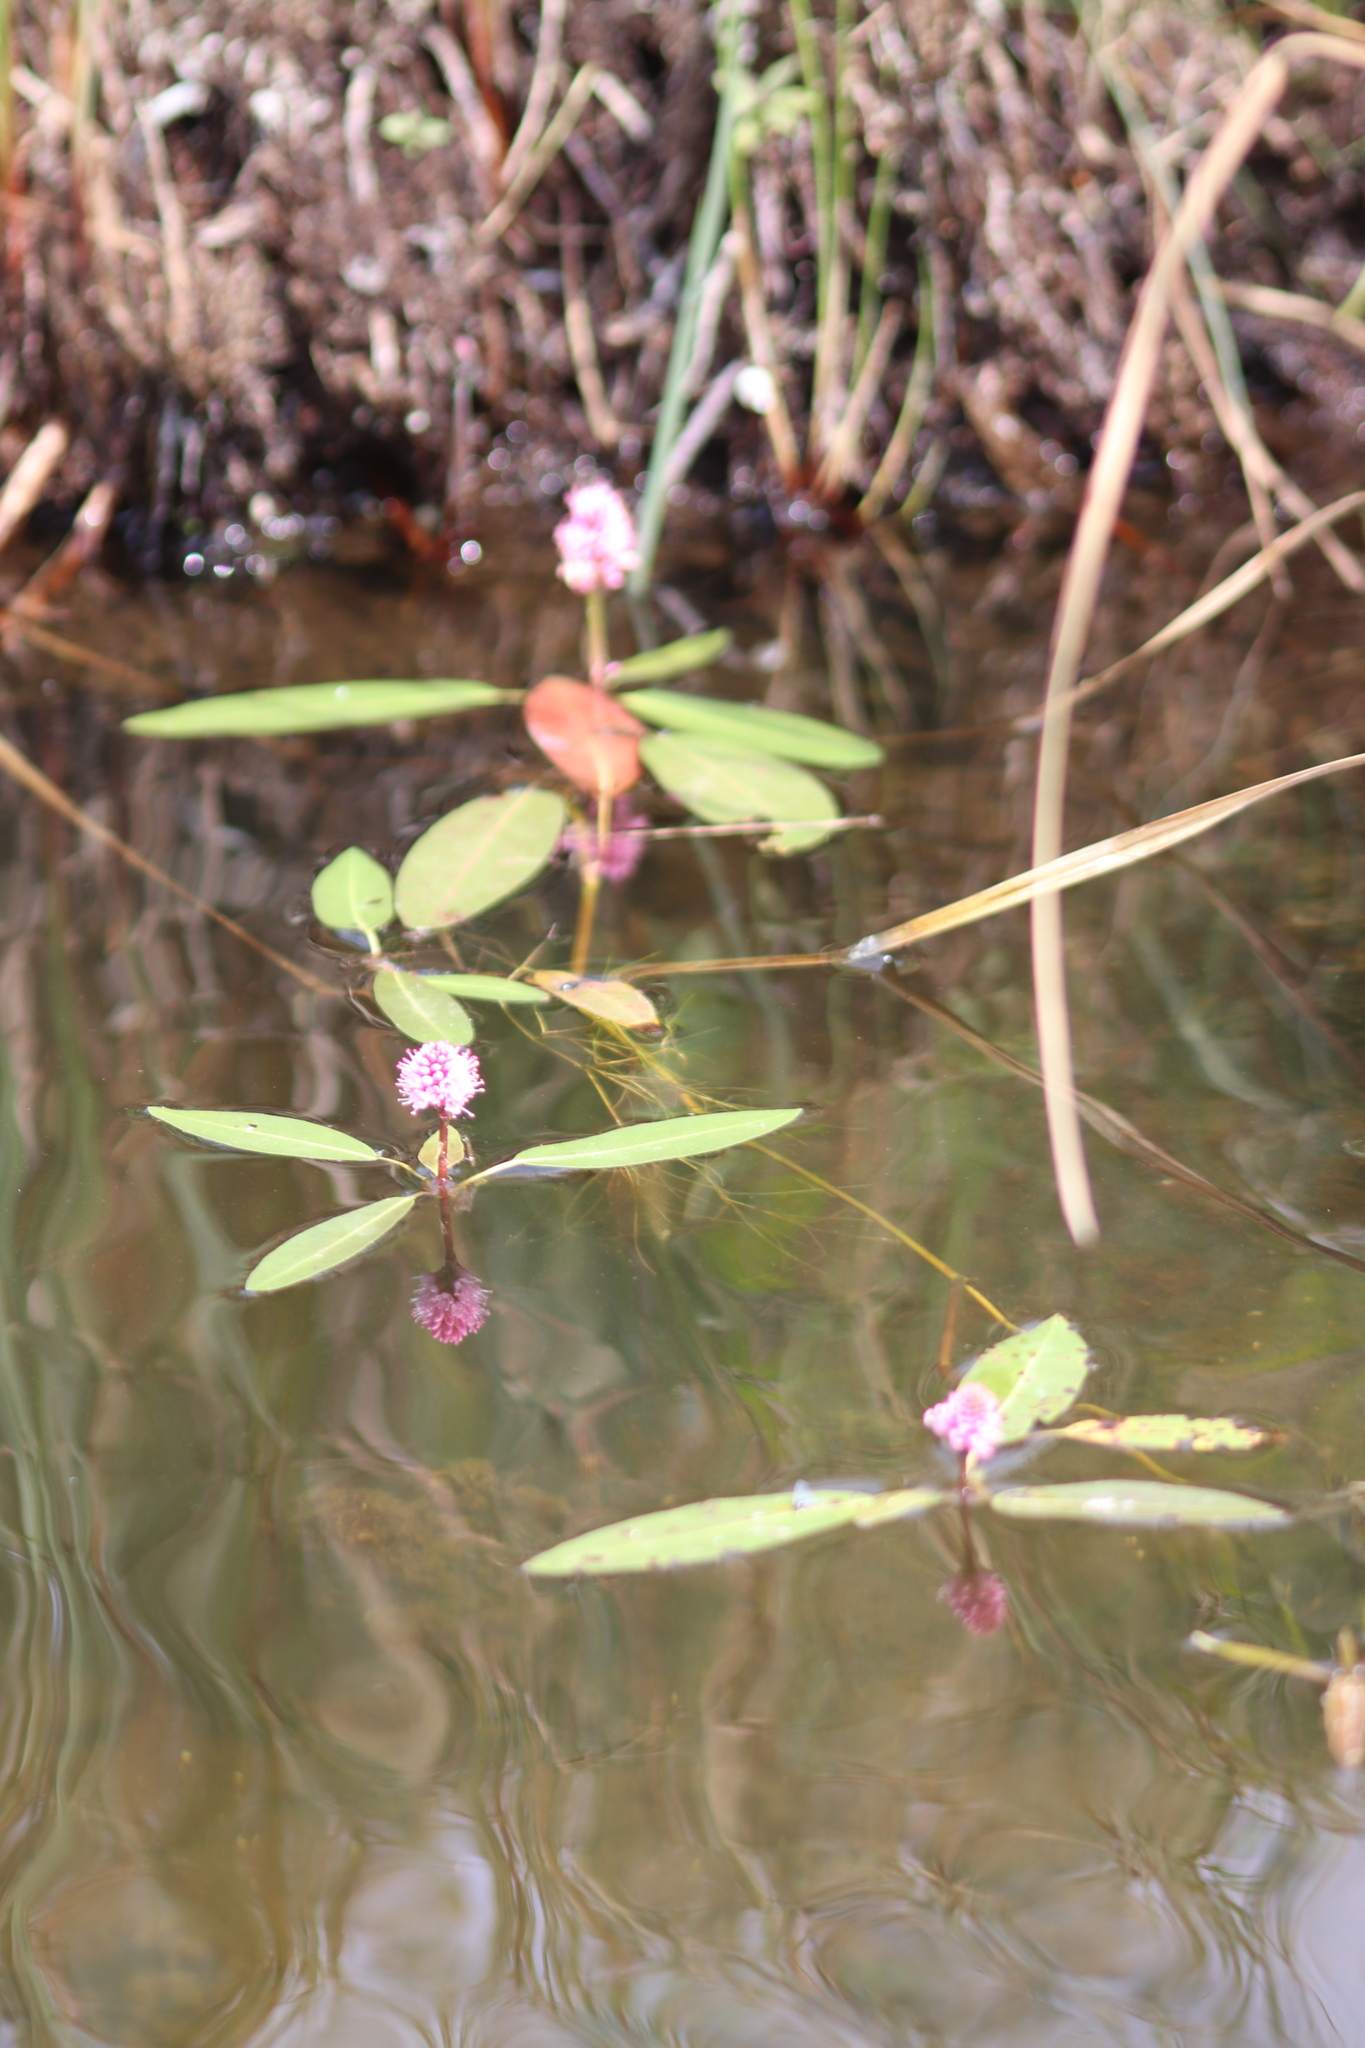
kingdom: Plantae
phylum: Tracheophyta
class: Magnoliopsida
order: Caryophyllales
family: Polygonaceae
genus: Persicaria
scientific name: Persicaria amphibia
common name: Amphibious bistort
